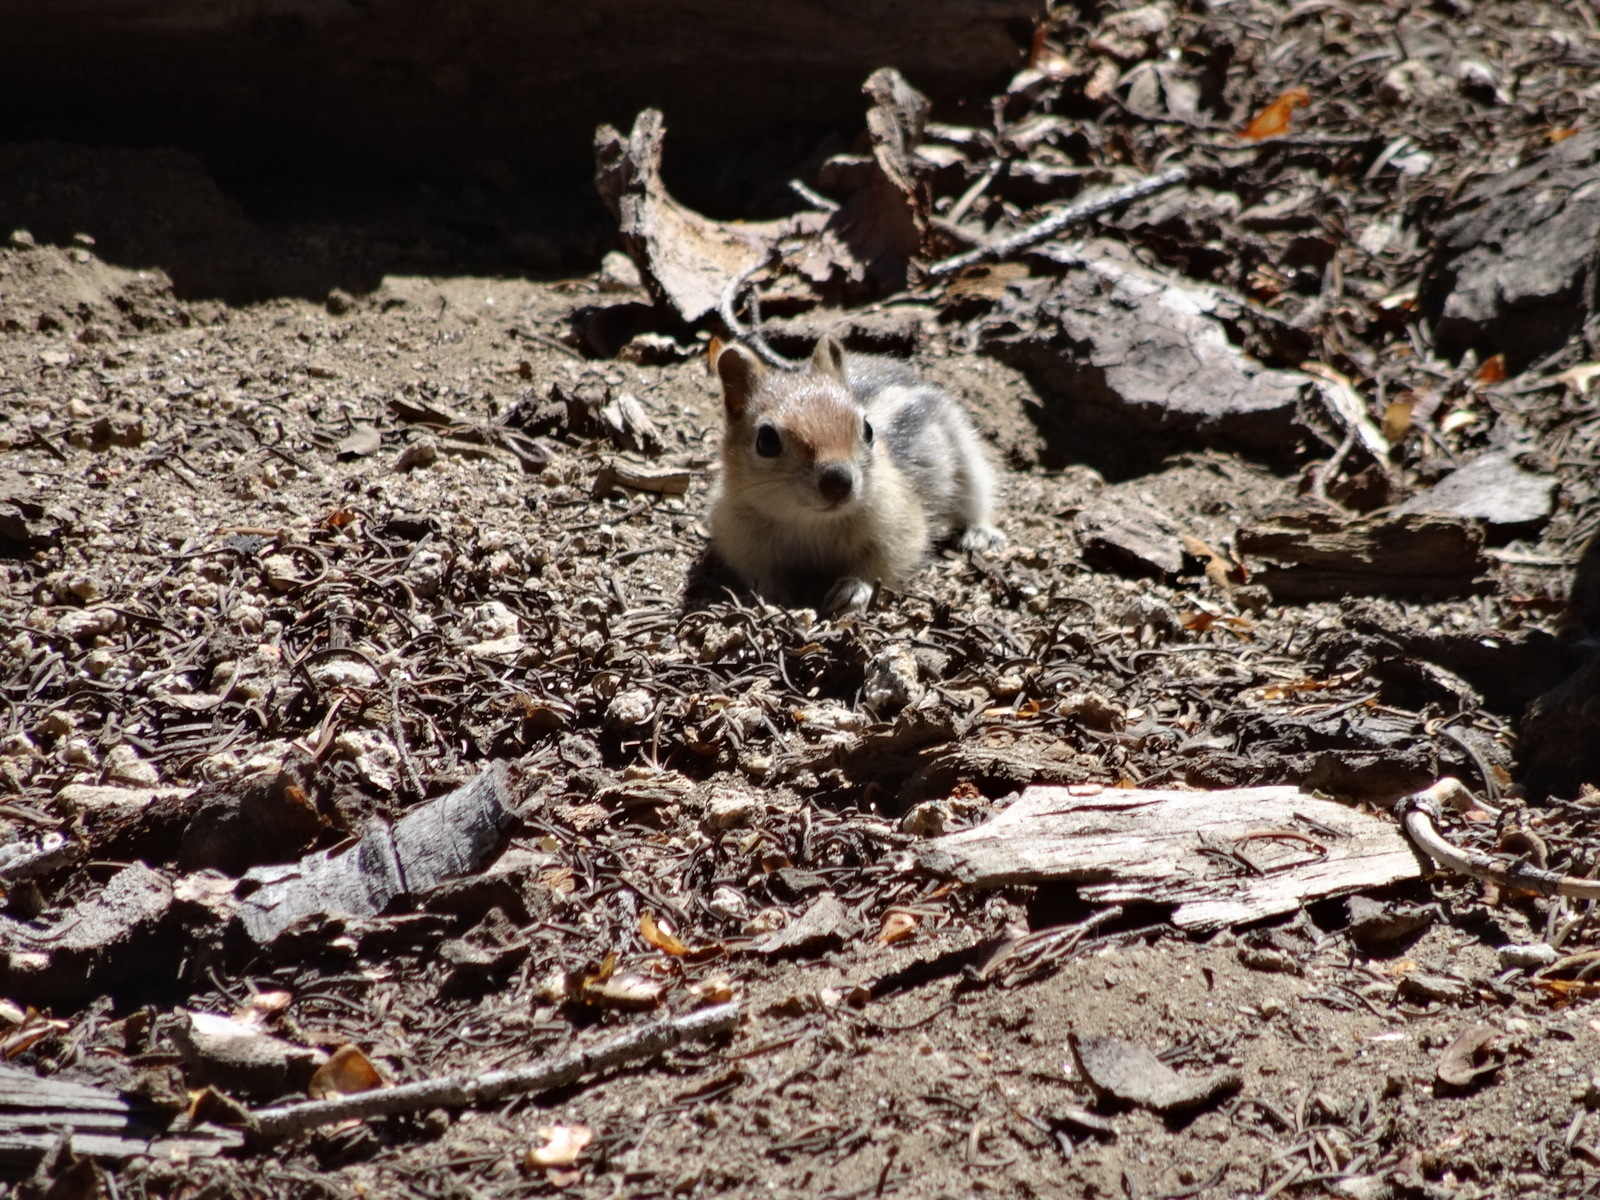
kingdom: Animalia
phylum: Chordata
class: Mammalia
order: Rodentia
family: Sciuridae
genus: Callospermophilus
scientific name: Callospermophilus lateralis
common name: Golden-mantled ground squirrel
